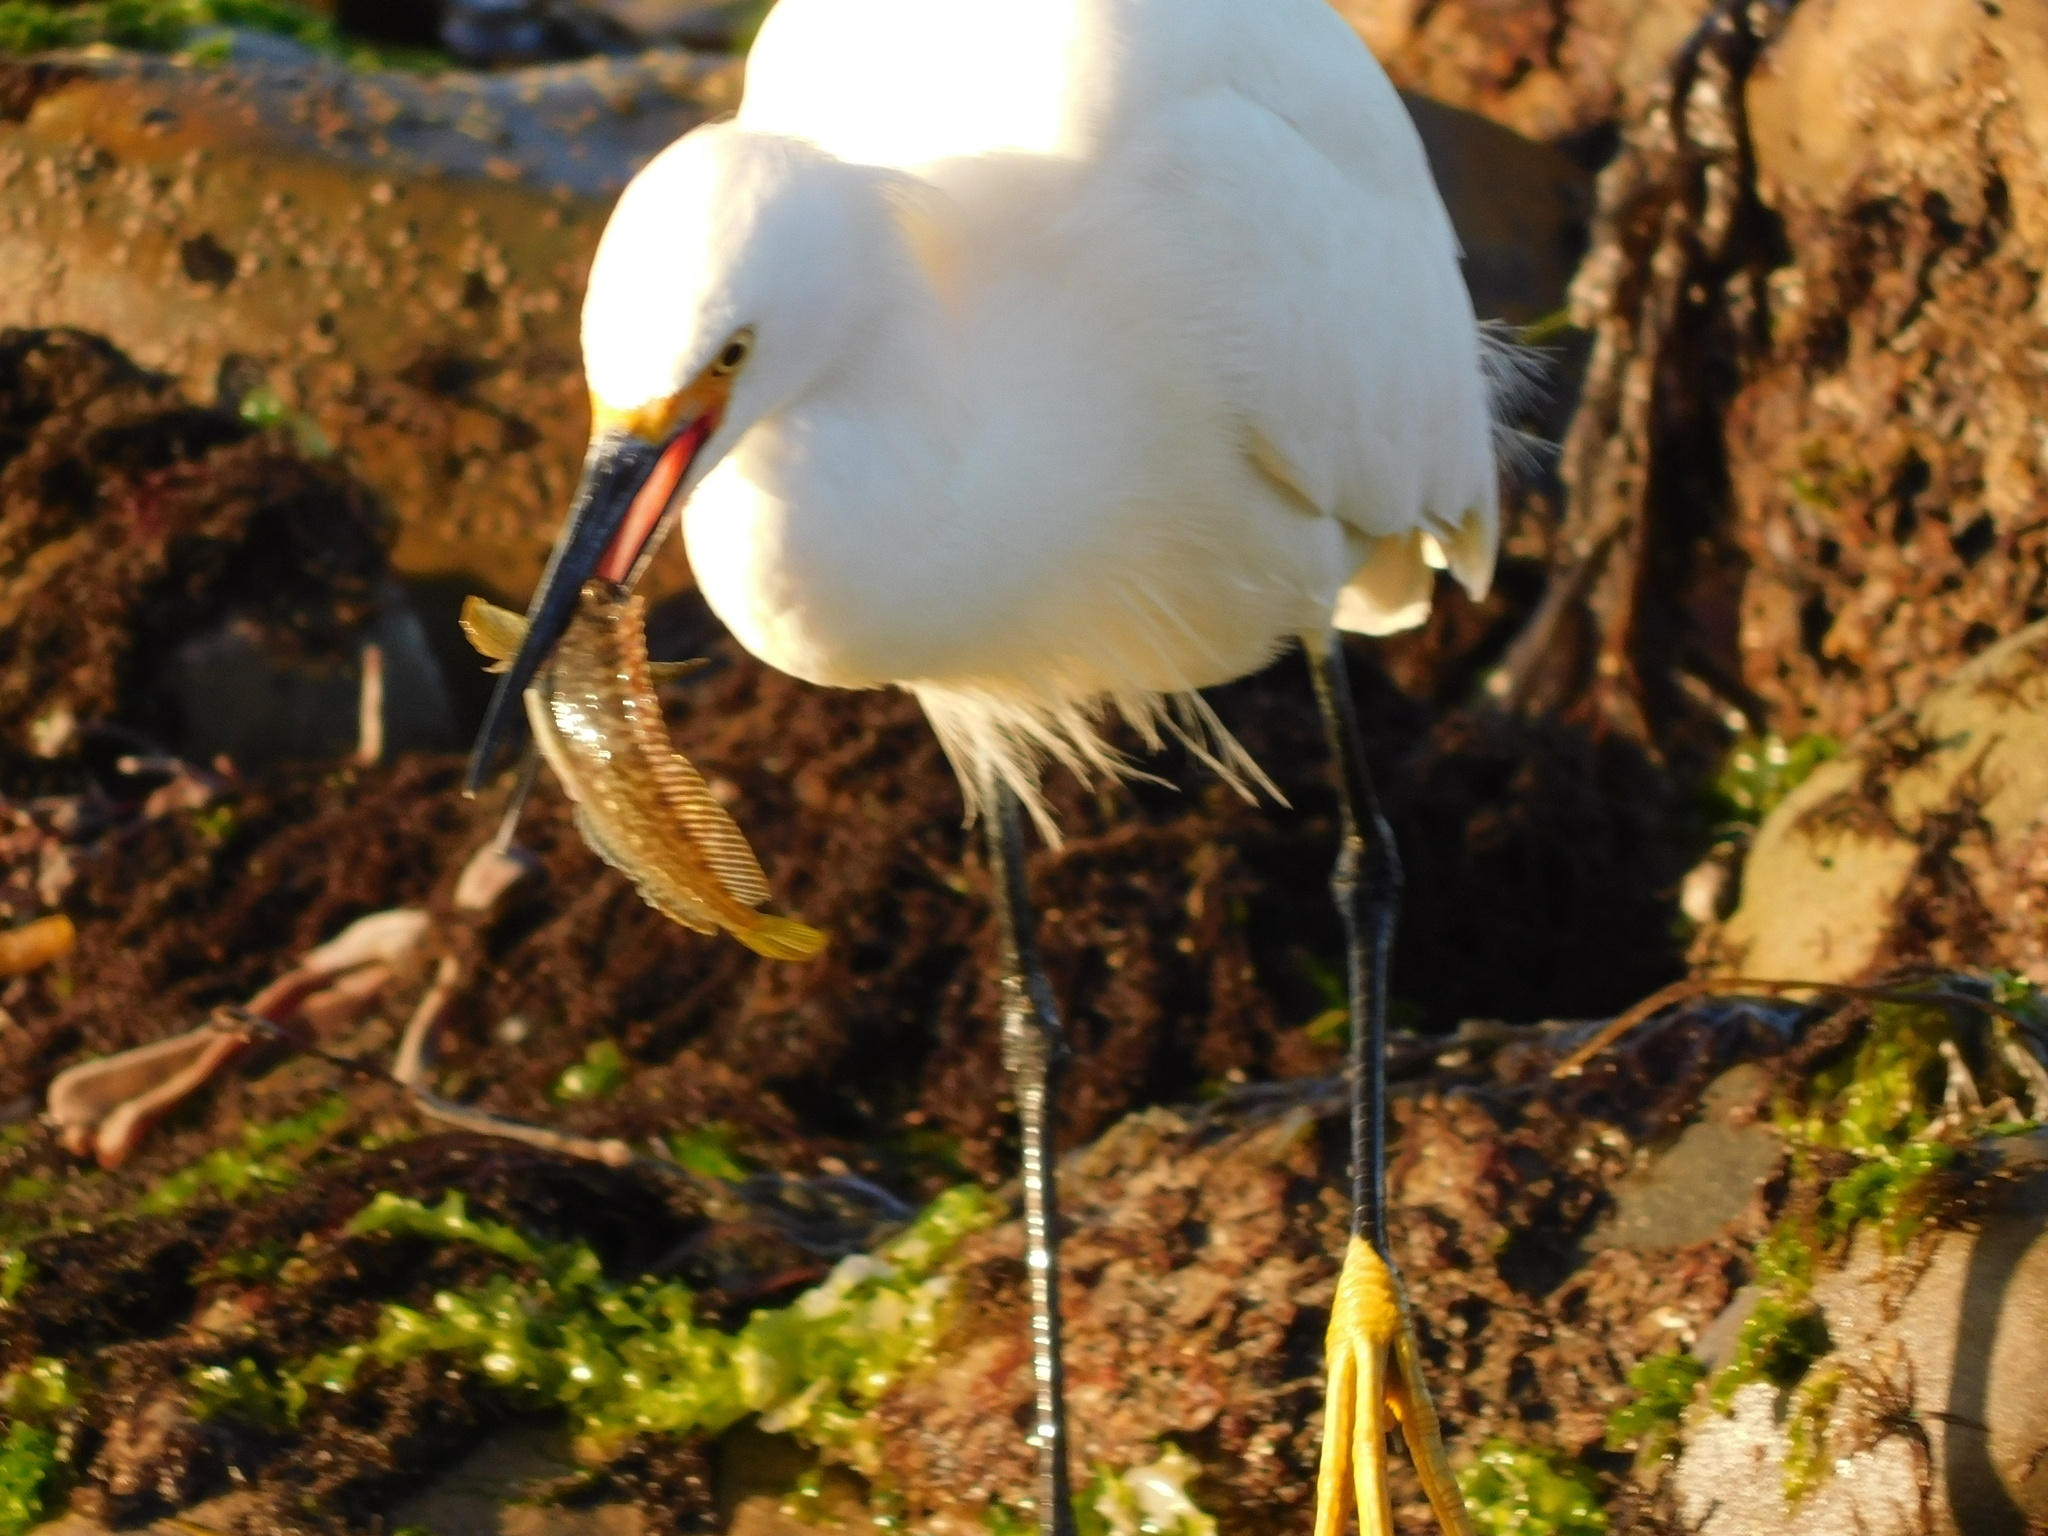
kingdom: Animalia
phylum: Chordata
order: Perciformes
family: Blenniidae
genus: Hypsoblennius
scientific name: Hypsoblennius gilberti
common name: Notchbrow blenny
